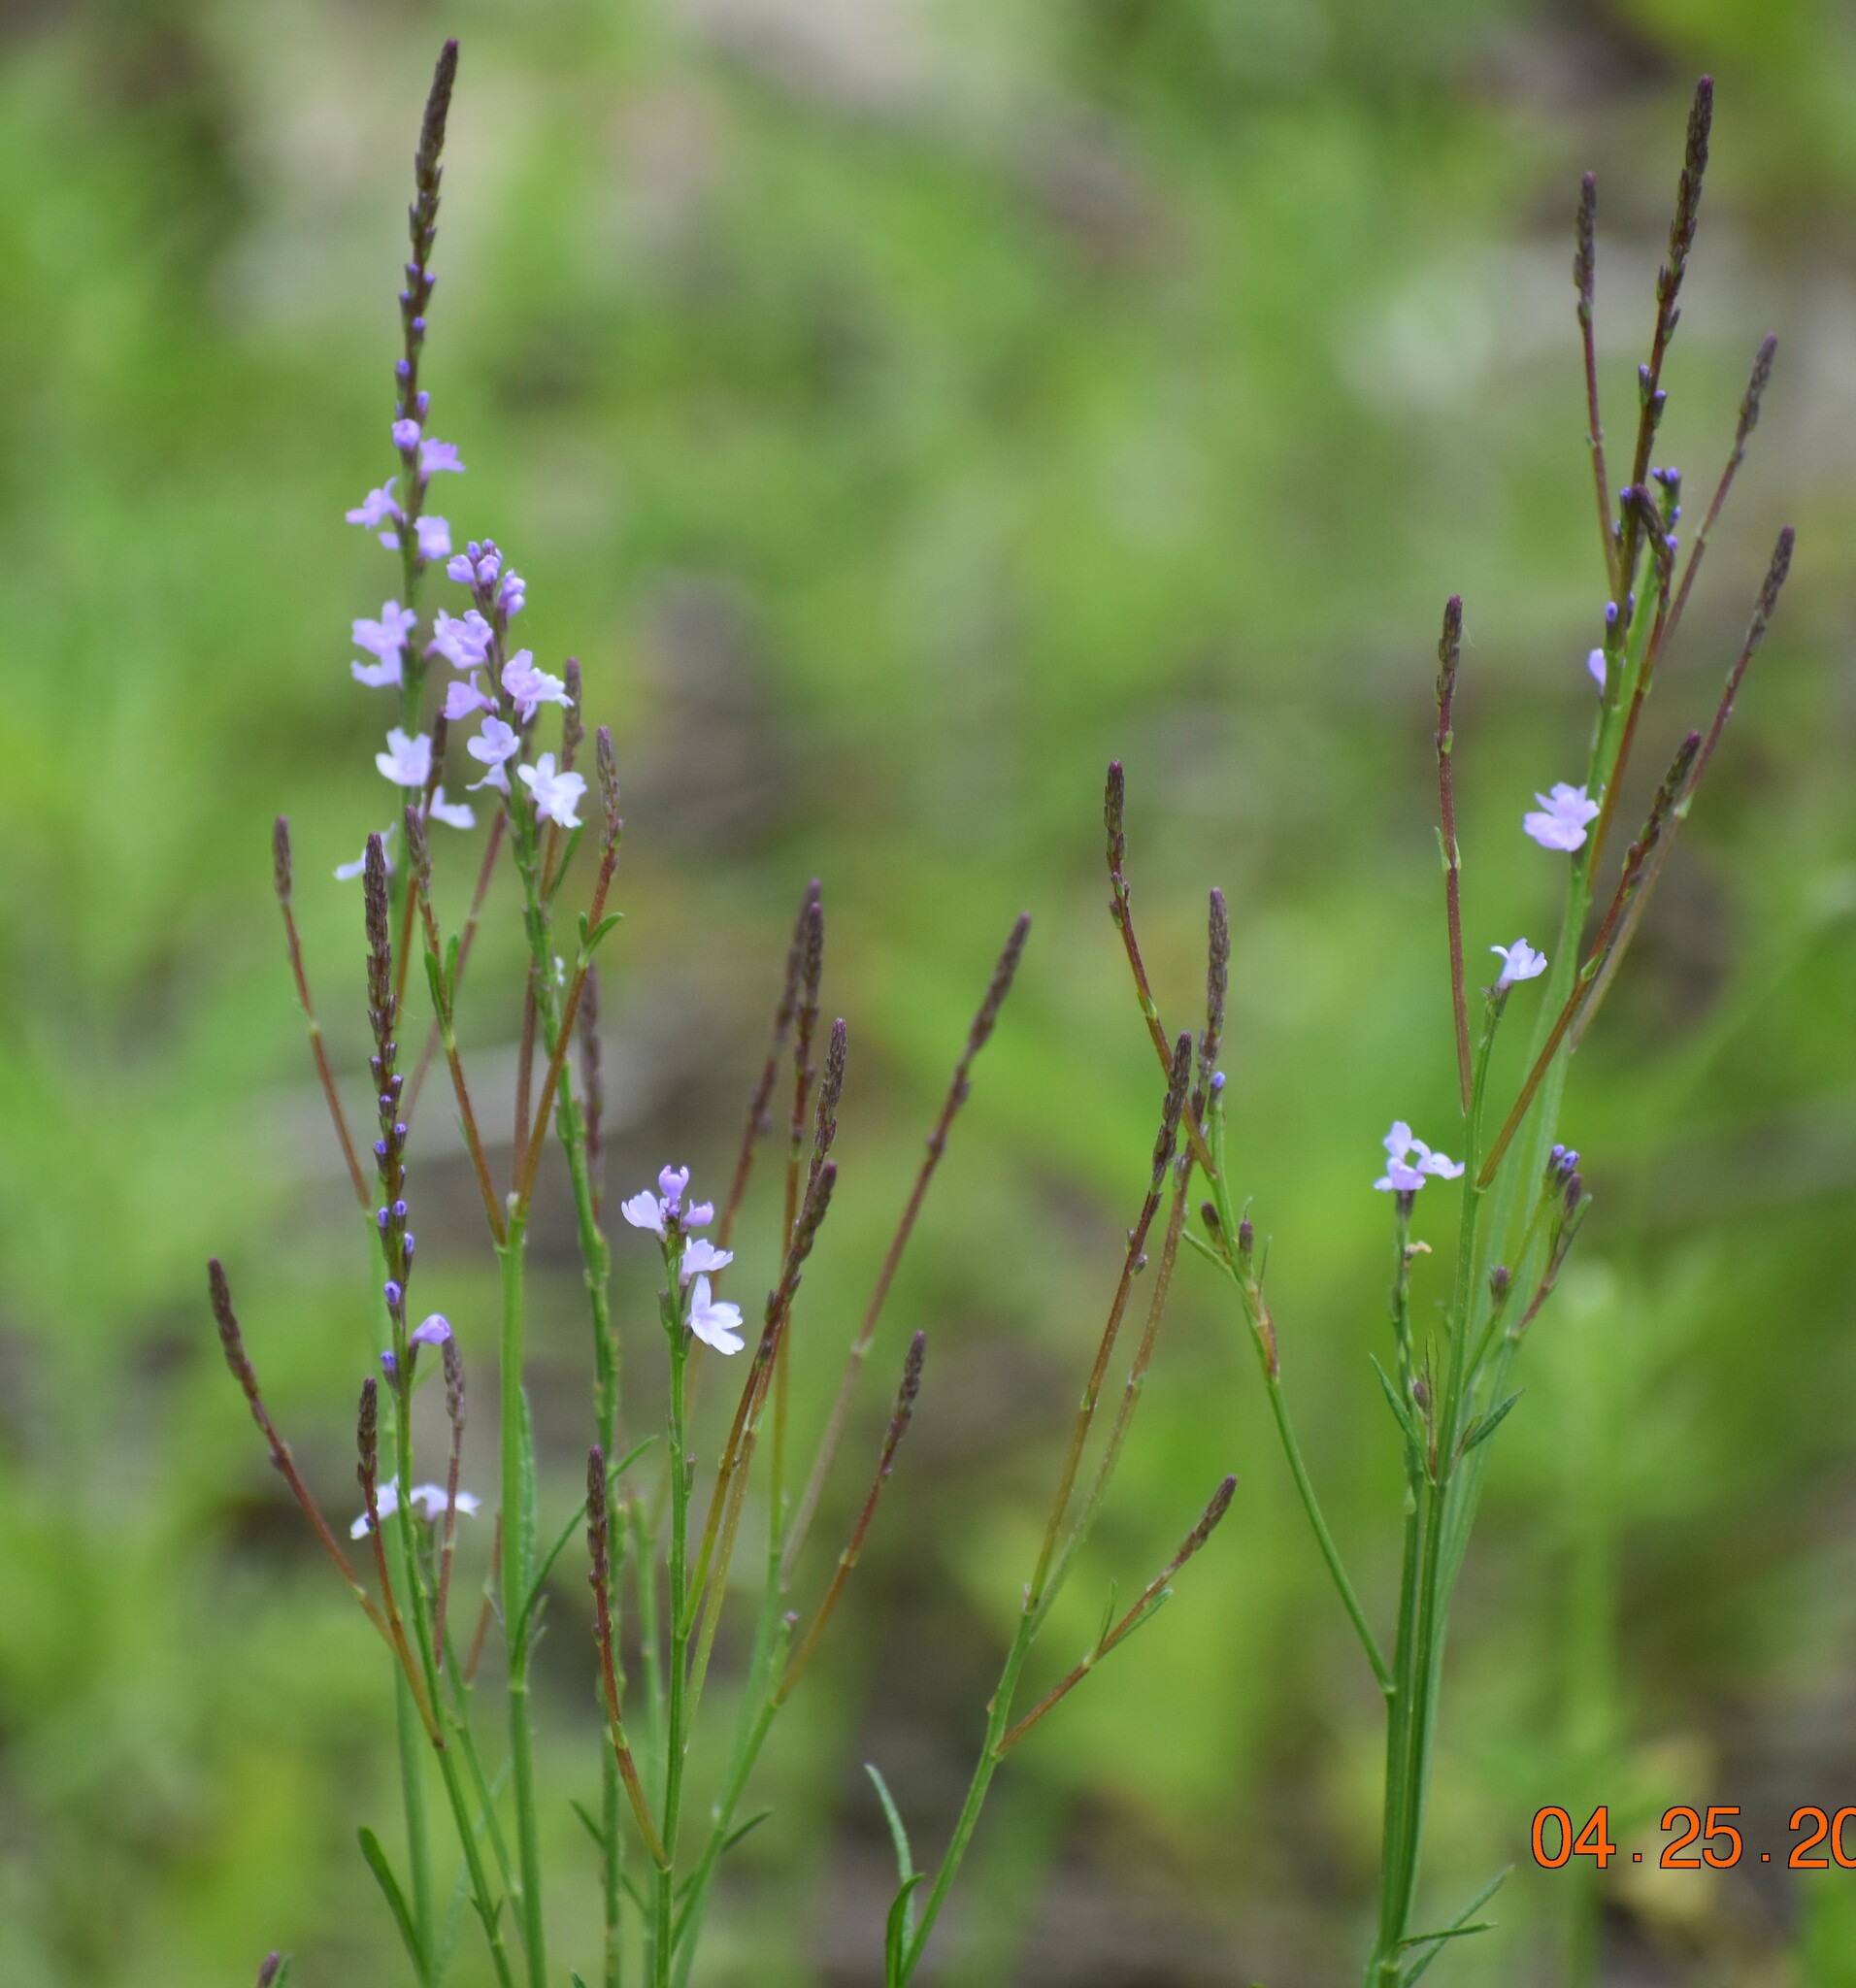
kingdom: Plantae
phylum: Tracheophyta
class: Magnoliopsida
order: Lamiales
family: Verbenaceae
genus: Verbena
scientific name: Verbena halei
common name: Texas vervain
